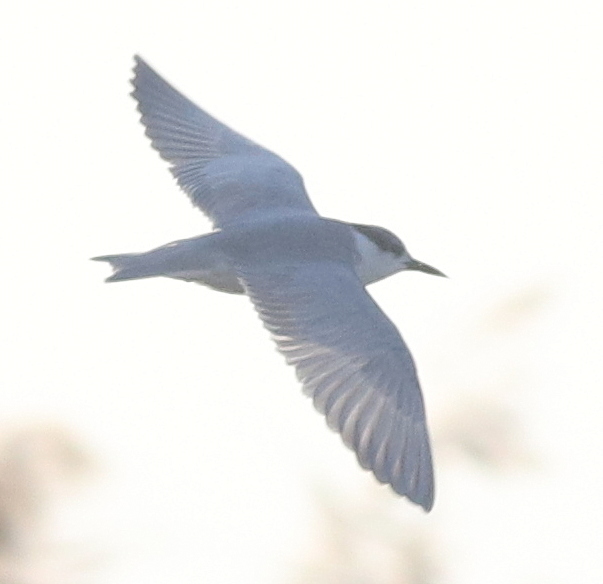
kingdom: Animalia
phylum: Chordata
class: Aves
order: Charadriiformes
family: Laridae
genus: Chlidonias
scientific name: Chlidonias hybrida
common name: Whiskered tern
